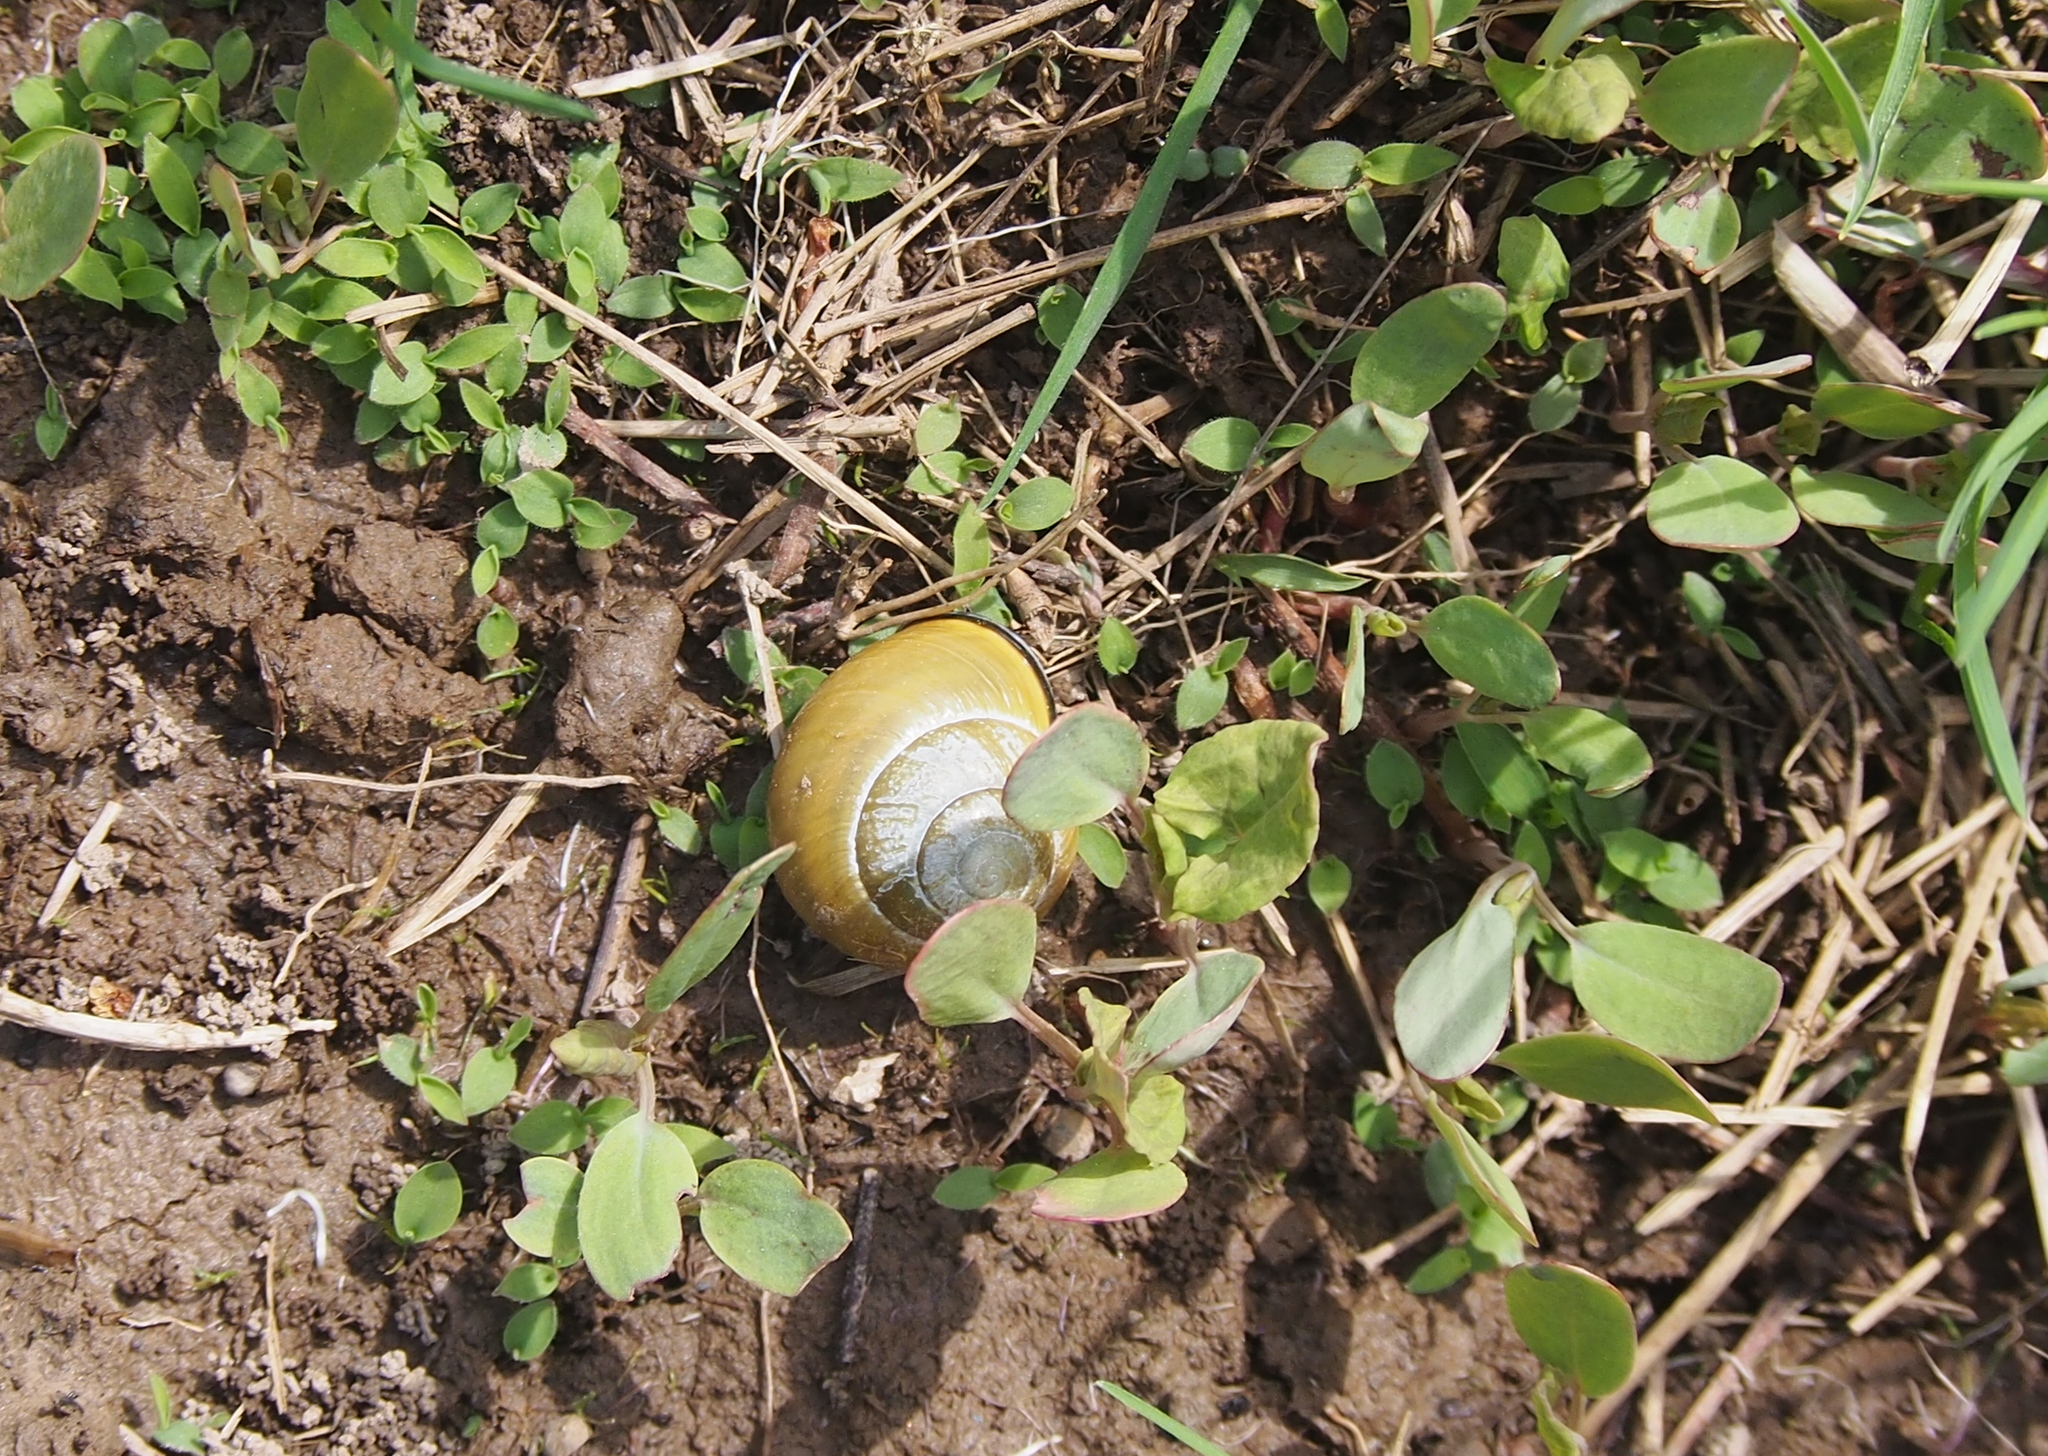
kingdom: Animalia
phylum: Mollusca
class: Gastropoda
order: Stylommatophora
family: Helicidae
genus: Cepaea
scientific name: Cepaea nemoralis
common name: Grovesnail
